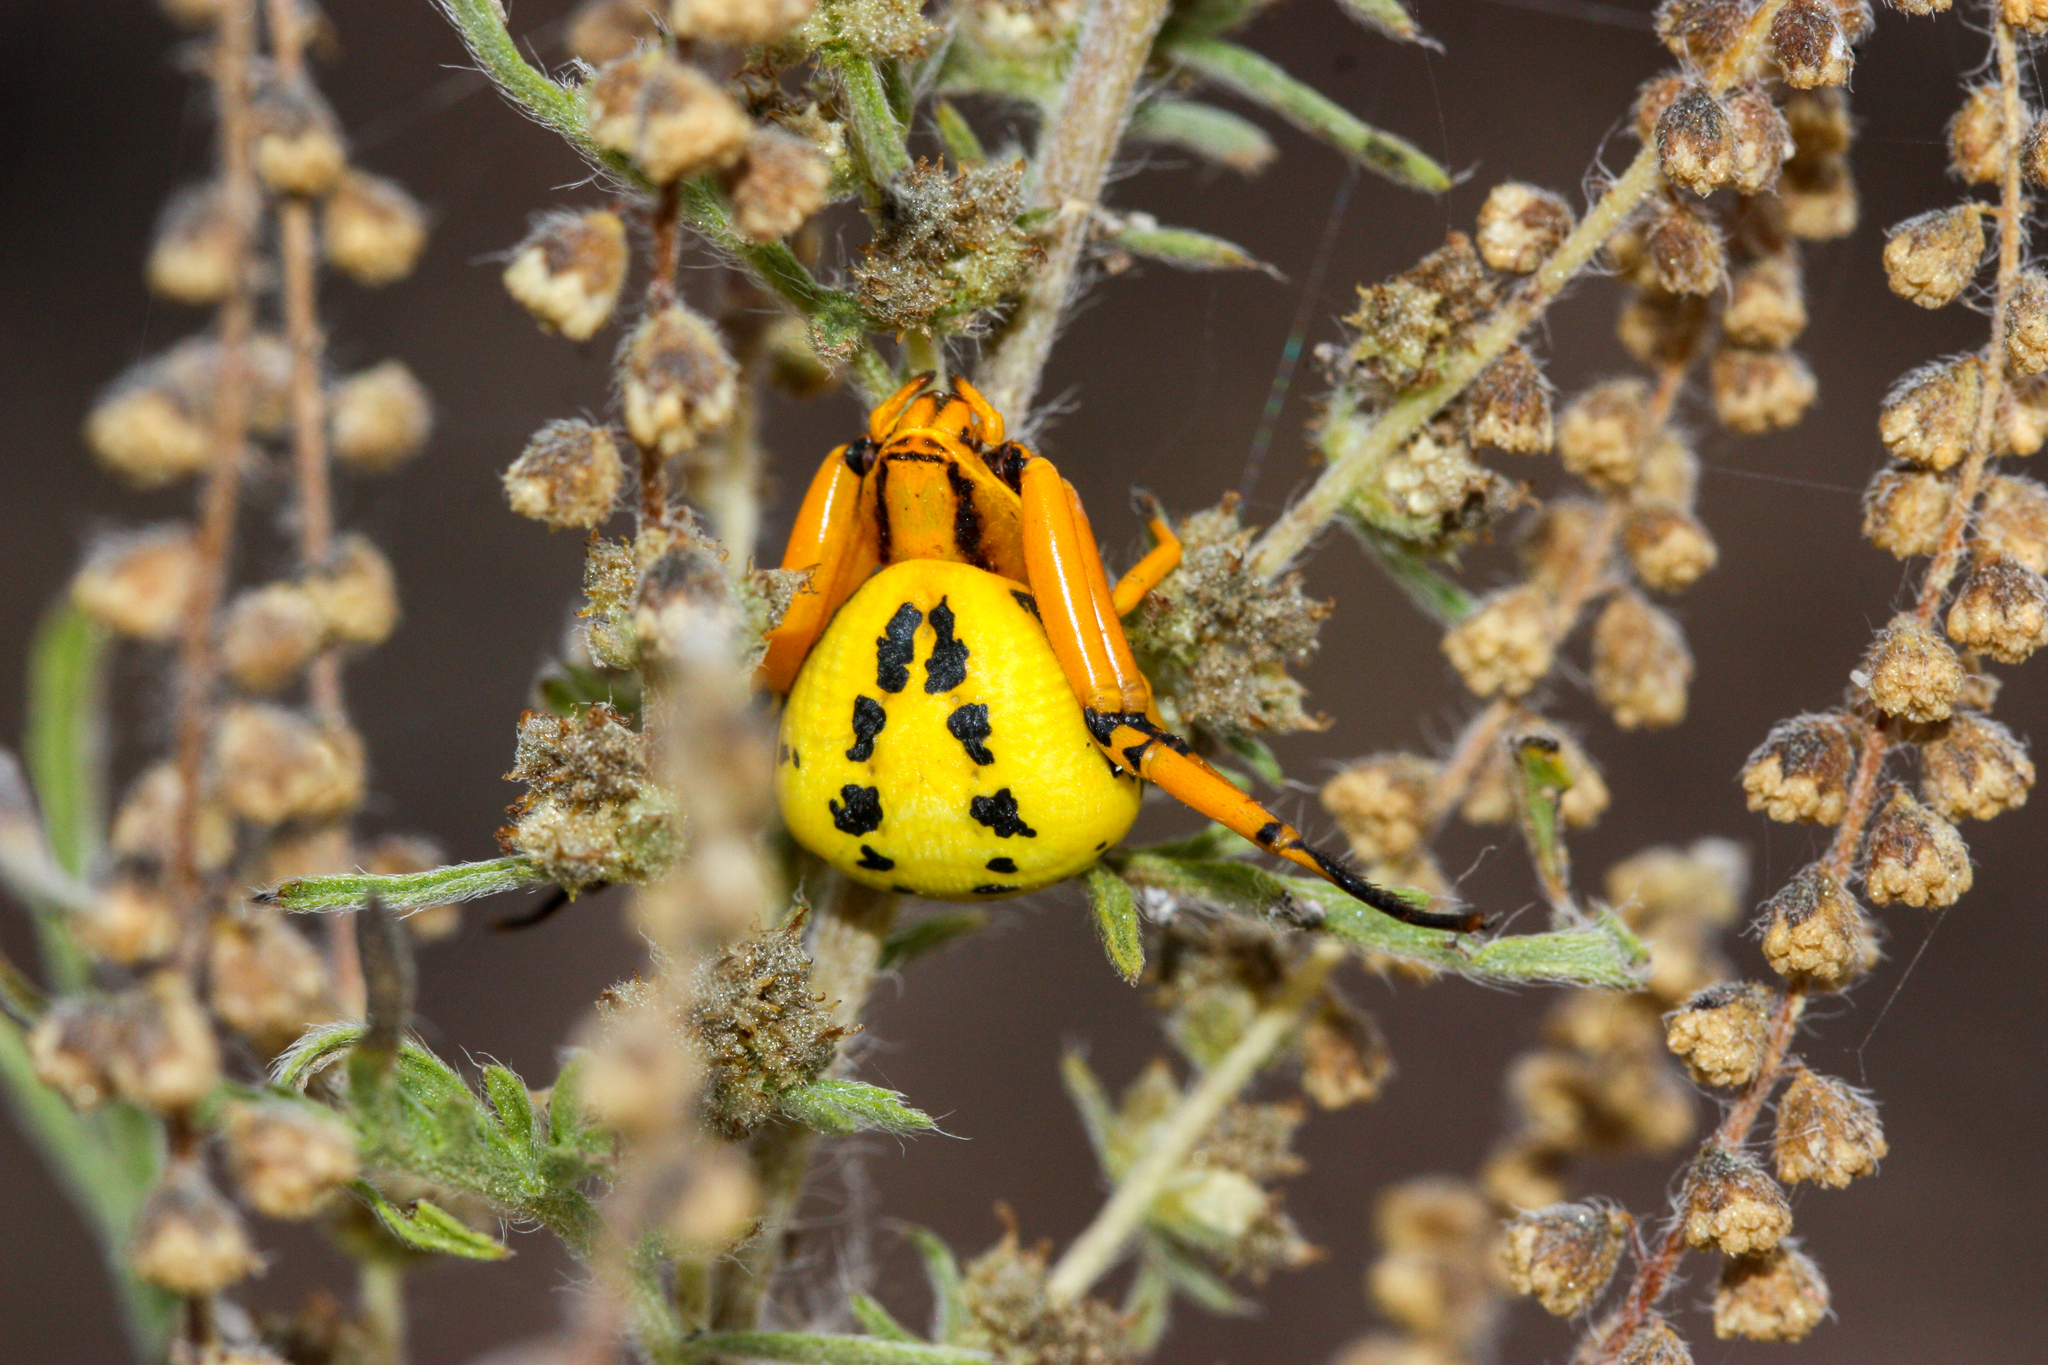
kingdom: Animalia
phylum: Arthropoda
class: Arachnida
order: Araneae
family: Thomisidae
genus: Misumenoides
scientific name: Misumenoides formosipes
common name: White-banded crab spider
